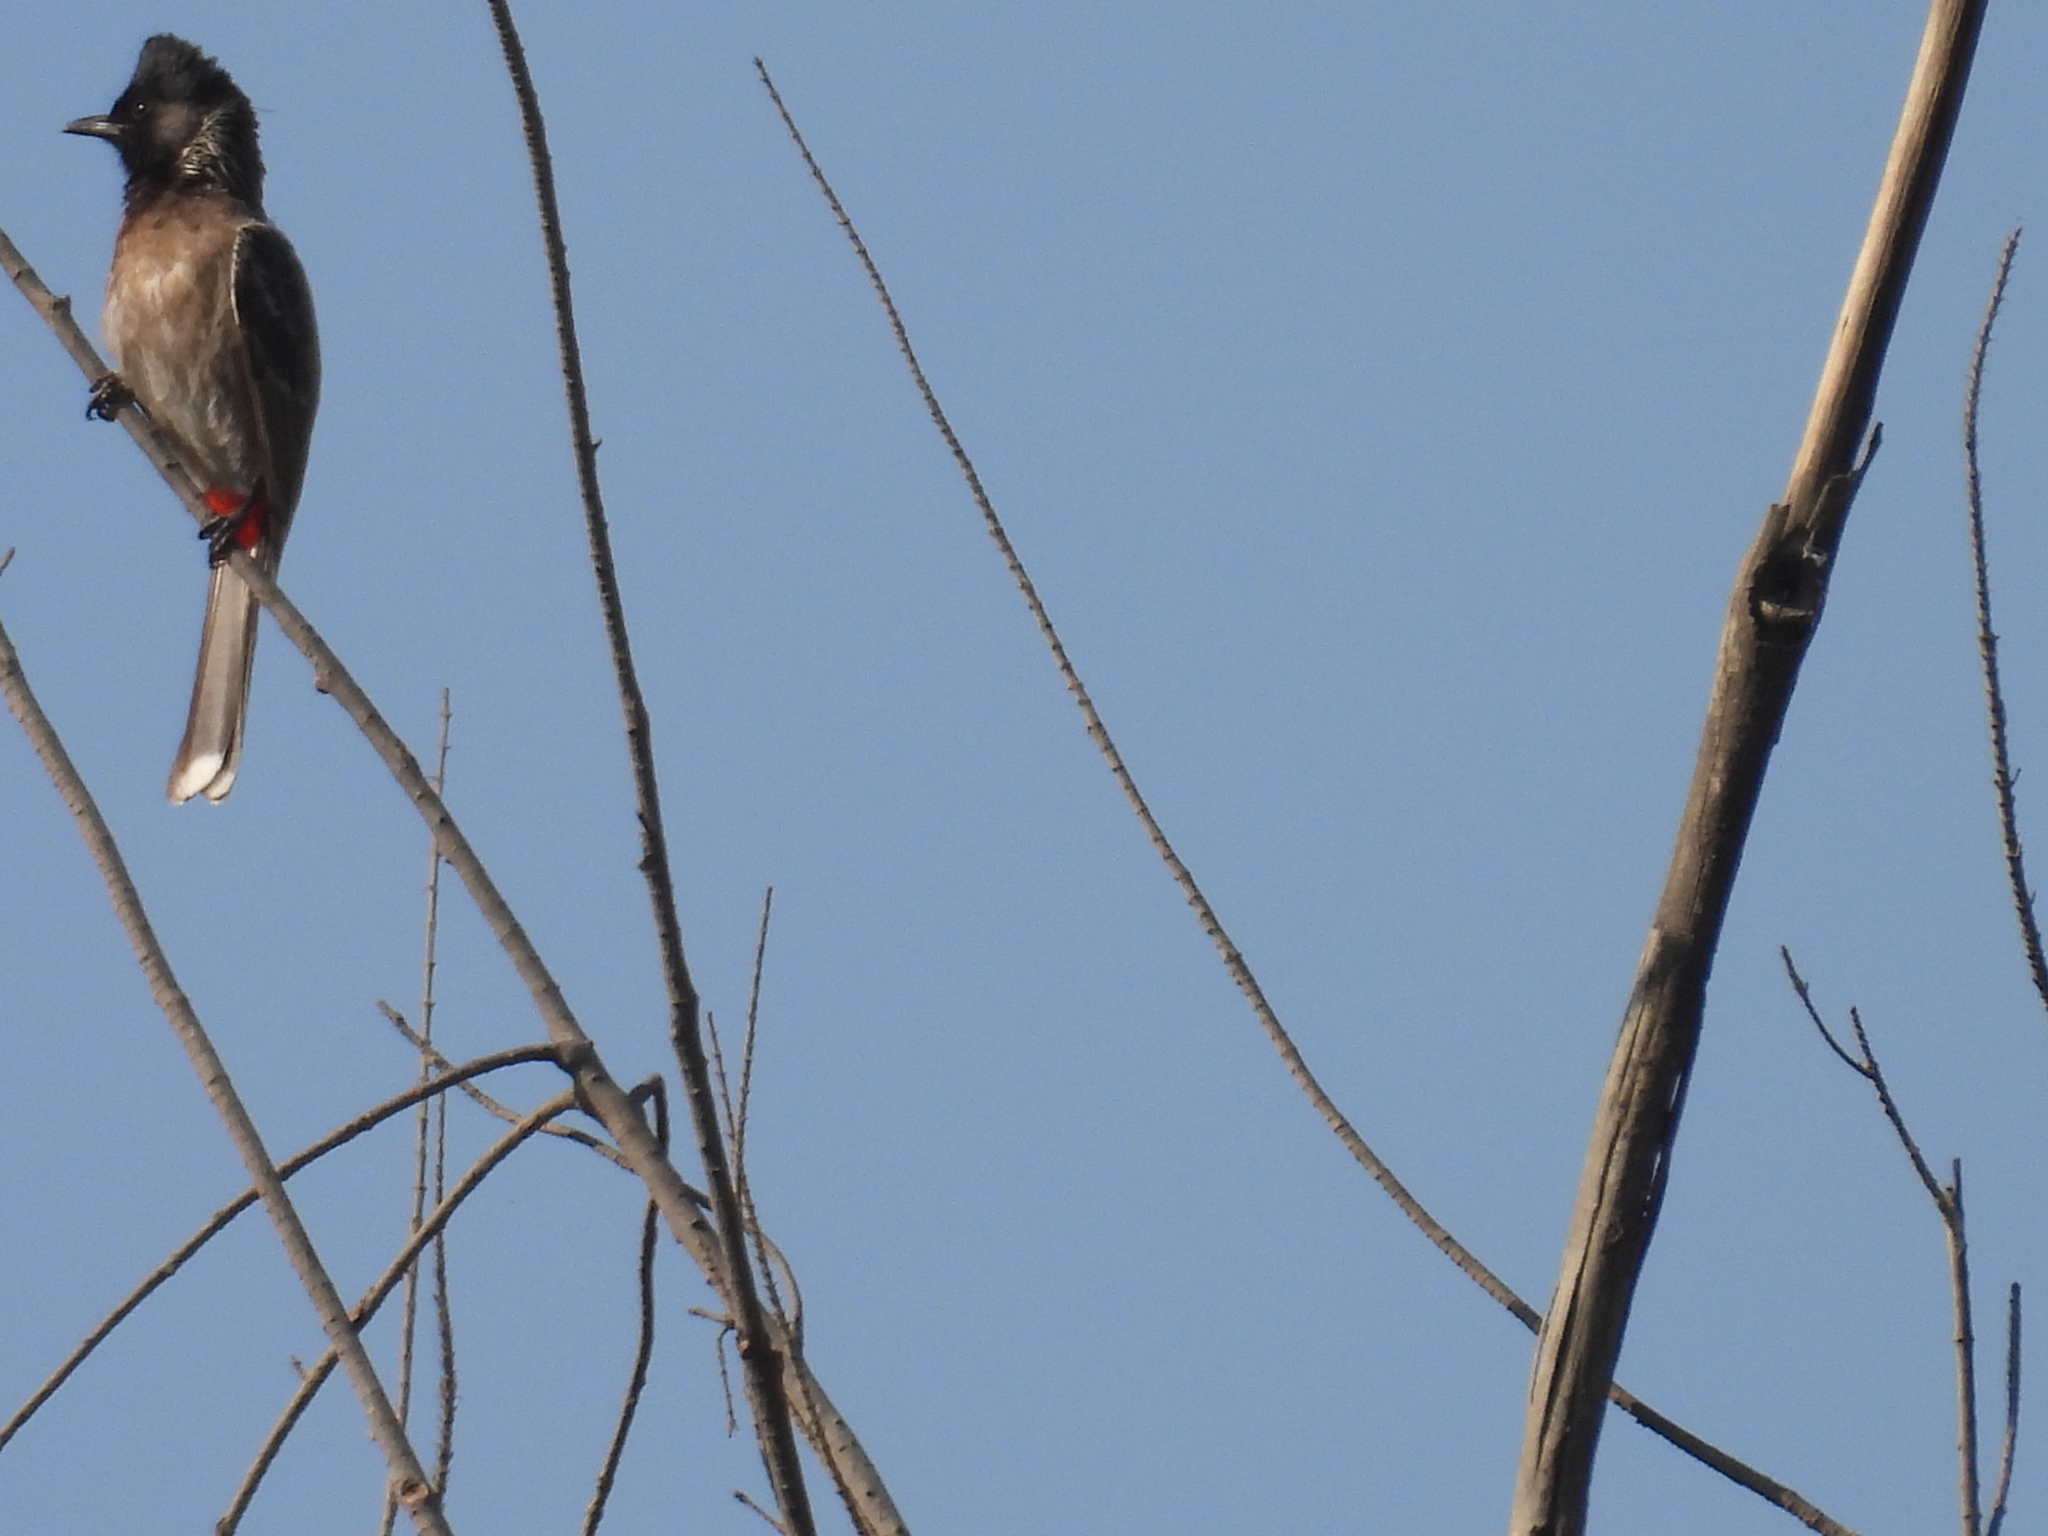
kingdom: Animalia
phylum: Chordata
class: Aves
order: Passeriformes
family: Pycnonotidae
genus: Pycnonotus
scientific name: Pycnonotus cafer
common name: Red-vented bulbul
